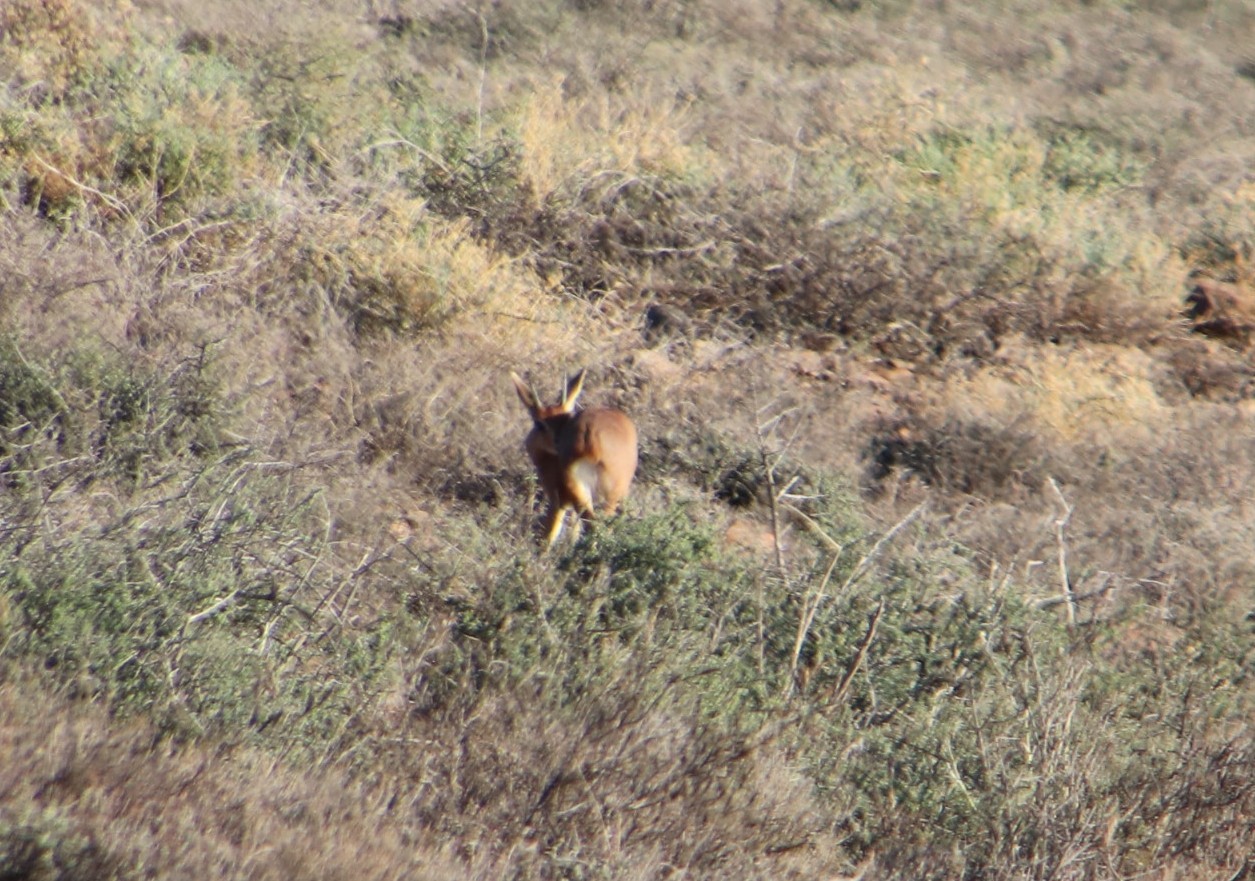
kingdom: Animalia
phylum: Chordata
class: Mammalia
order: Artiodactyla
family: Bovidae
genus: Raphicerus
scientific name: Raphicerus campestris
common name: Steenbok
